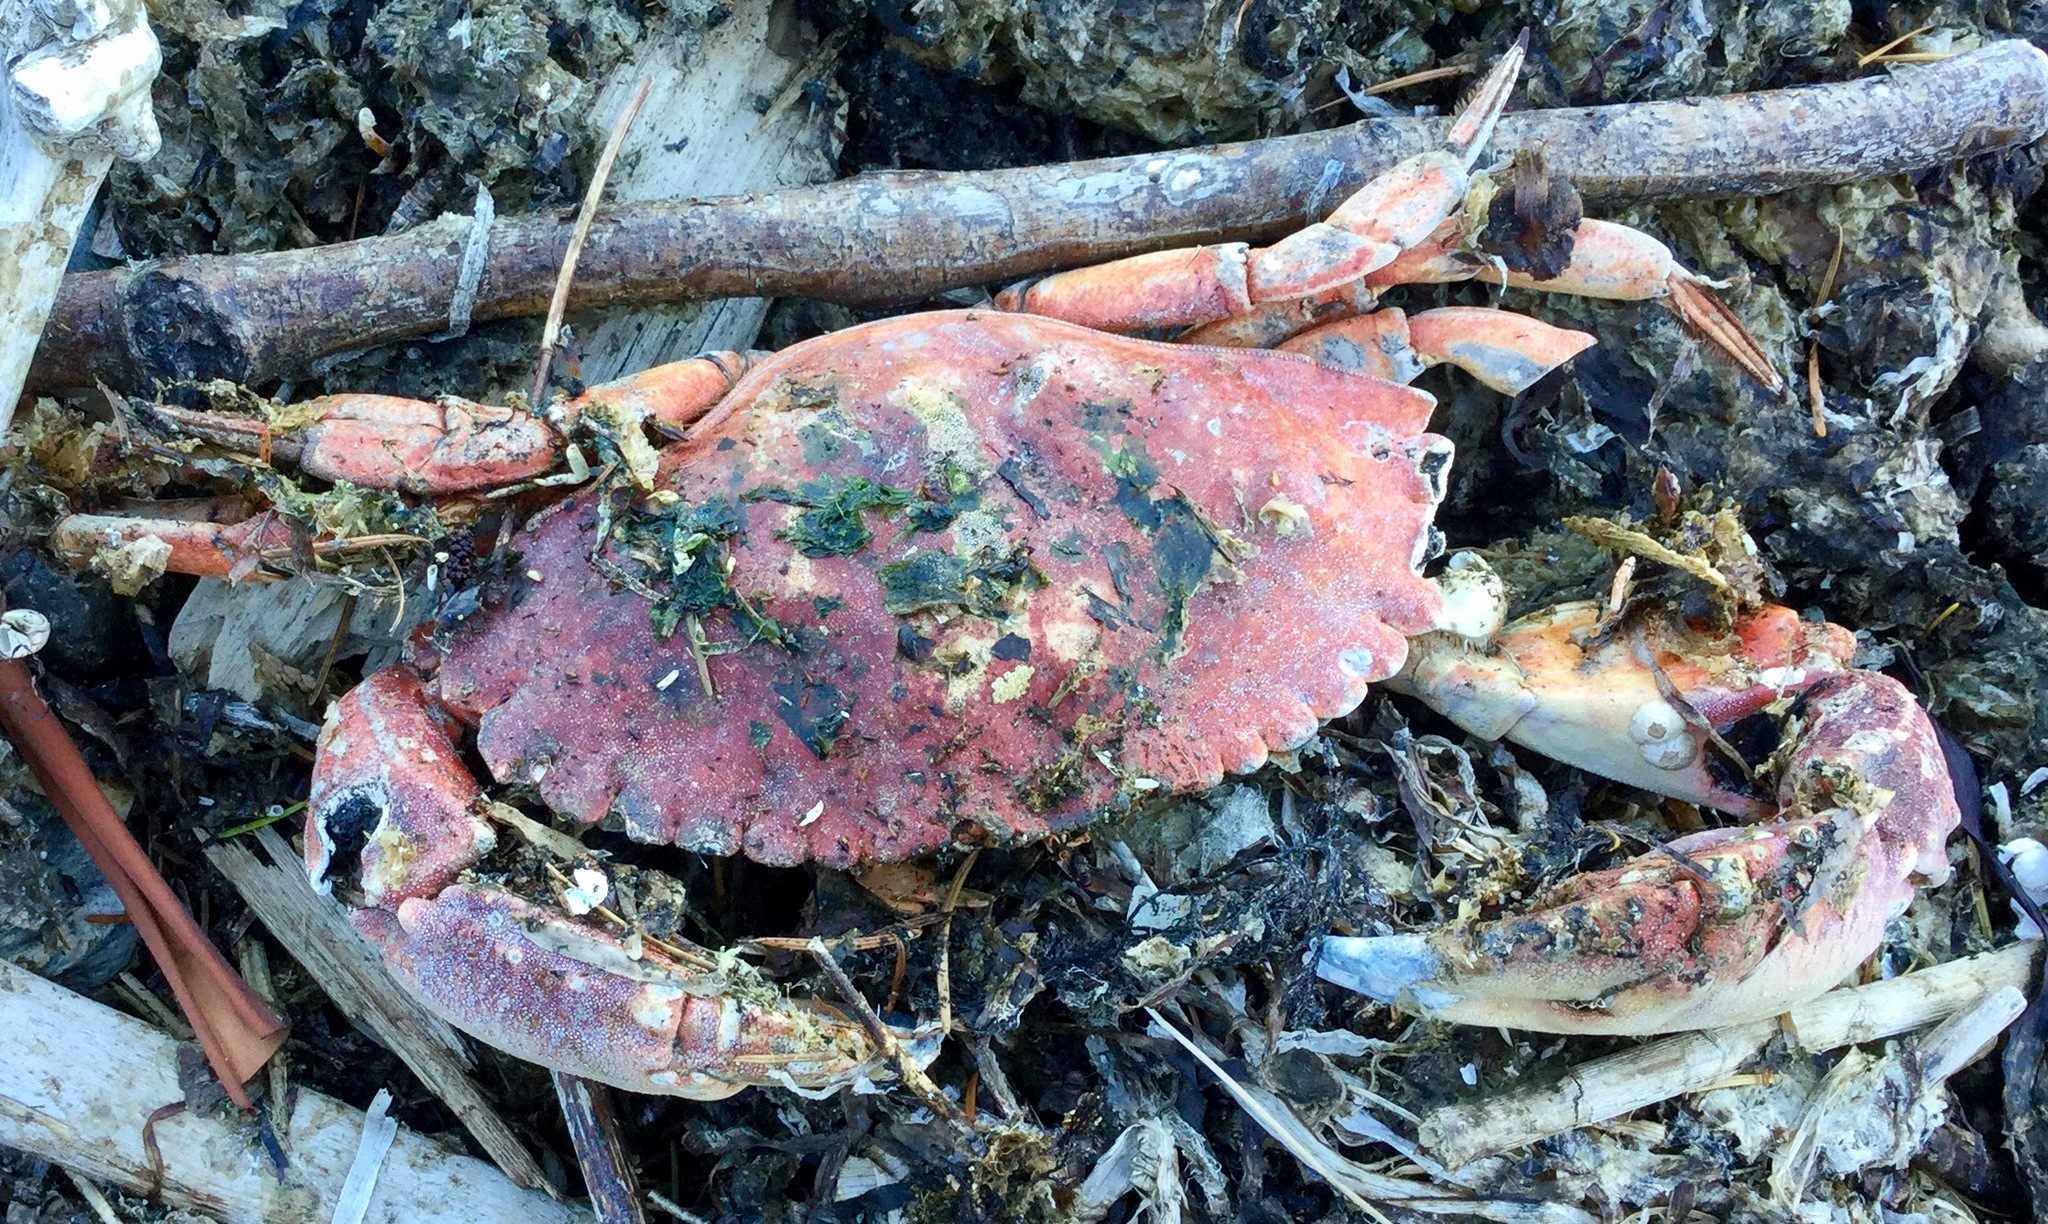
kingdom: Animalia
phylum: Arthropoda
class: Malacostraca
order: Decapoda
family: Cancridae
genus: Cancer
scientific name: Cancer productus
